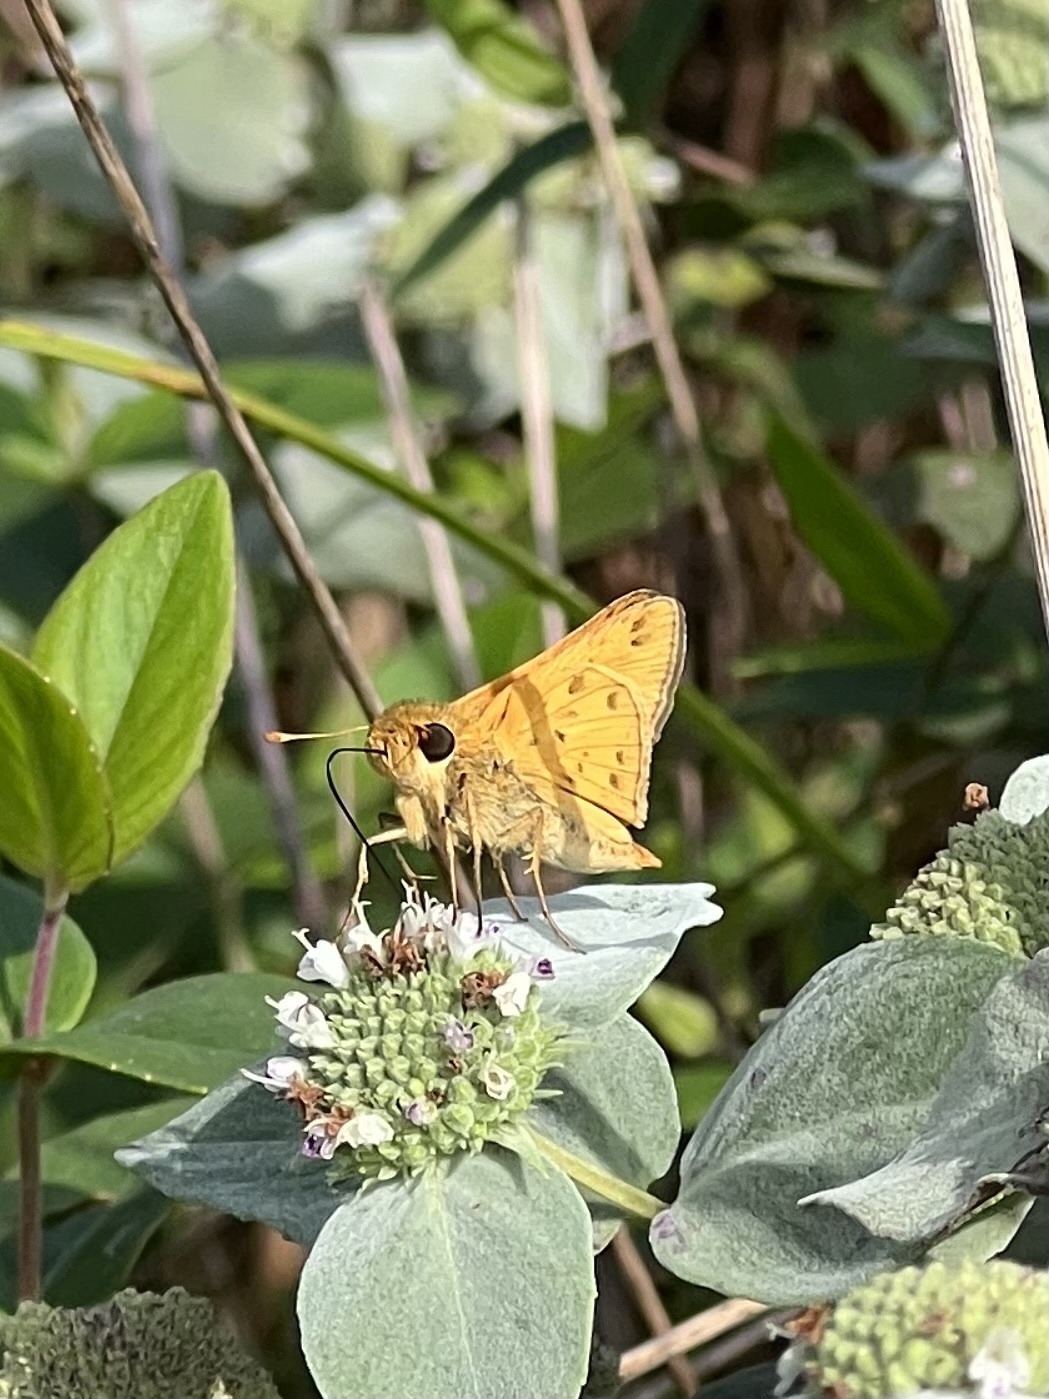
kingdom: Animalia
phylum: Arthropoda
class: Insecta
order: Lepidoptera
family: Hesperiidae
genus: Hylephila
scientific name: Hylephila phyleus
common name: Fiery skipper
